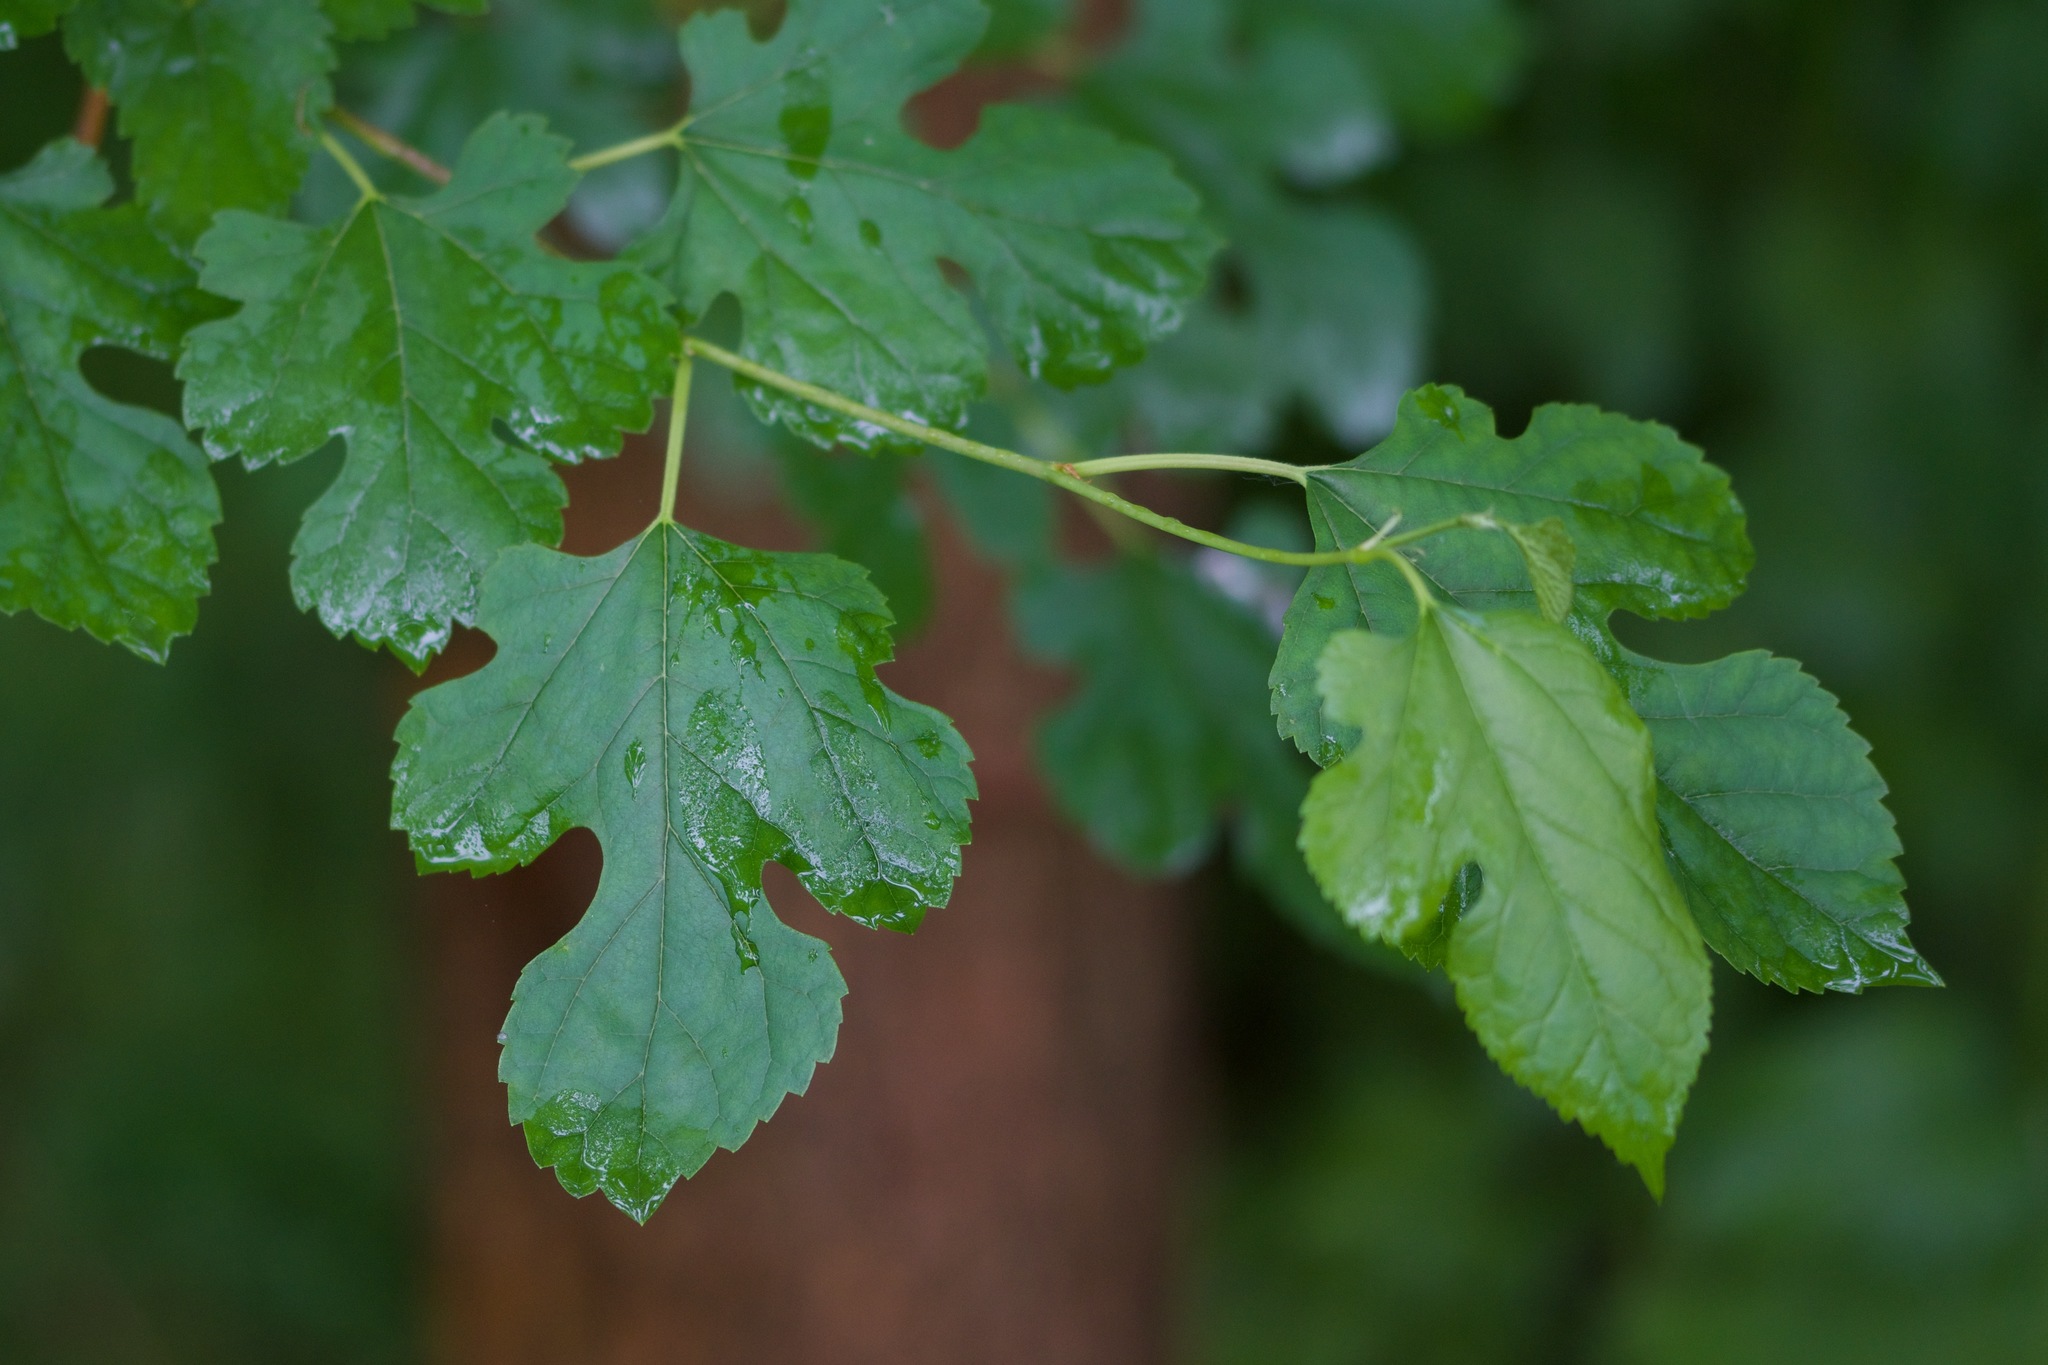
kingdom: Plantae
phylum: Tracheophyta
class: Magnoliopsida
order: Rosales
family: Moraceae
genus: Morus
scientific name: Morus alba
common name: White mulberry
